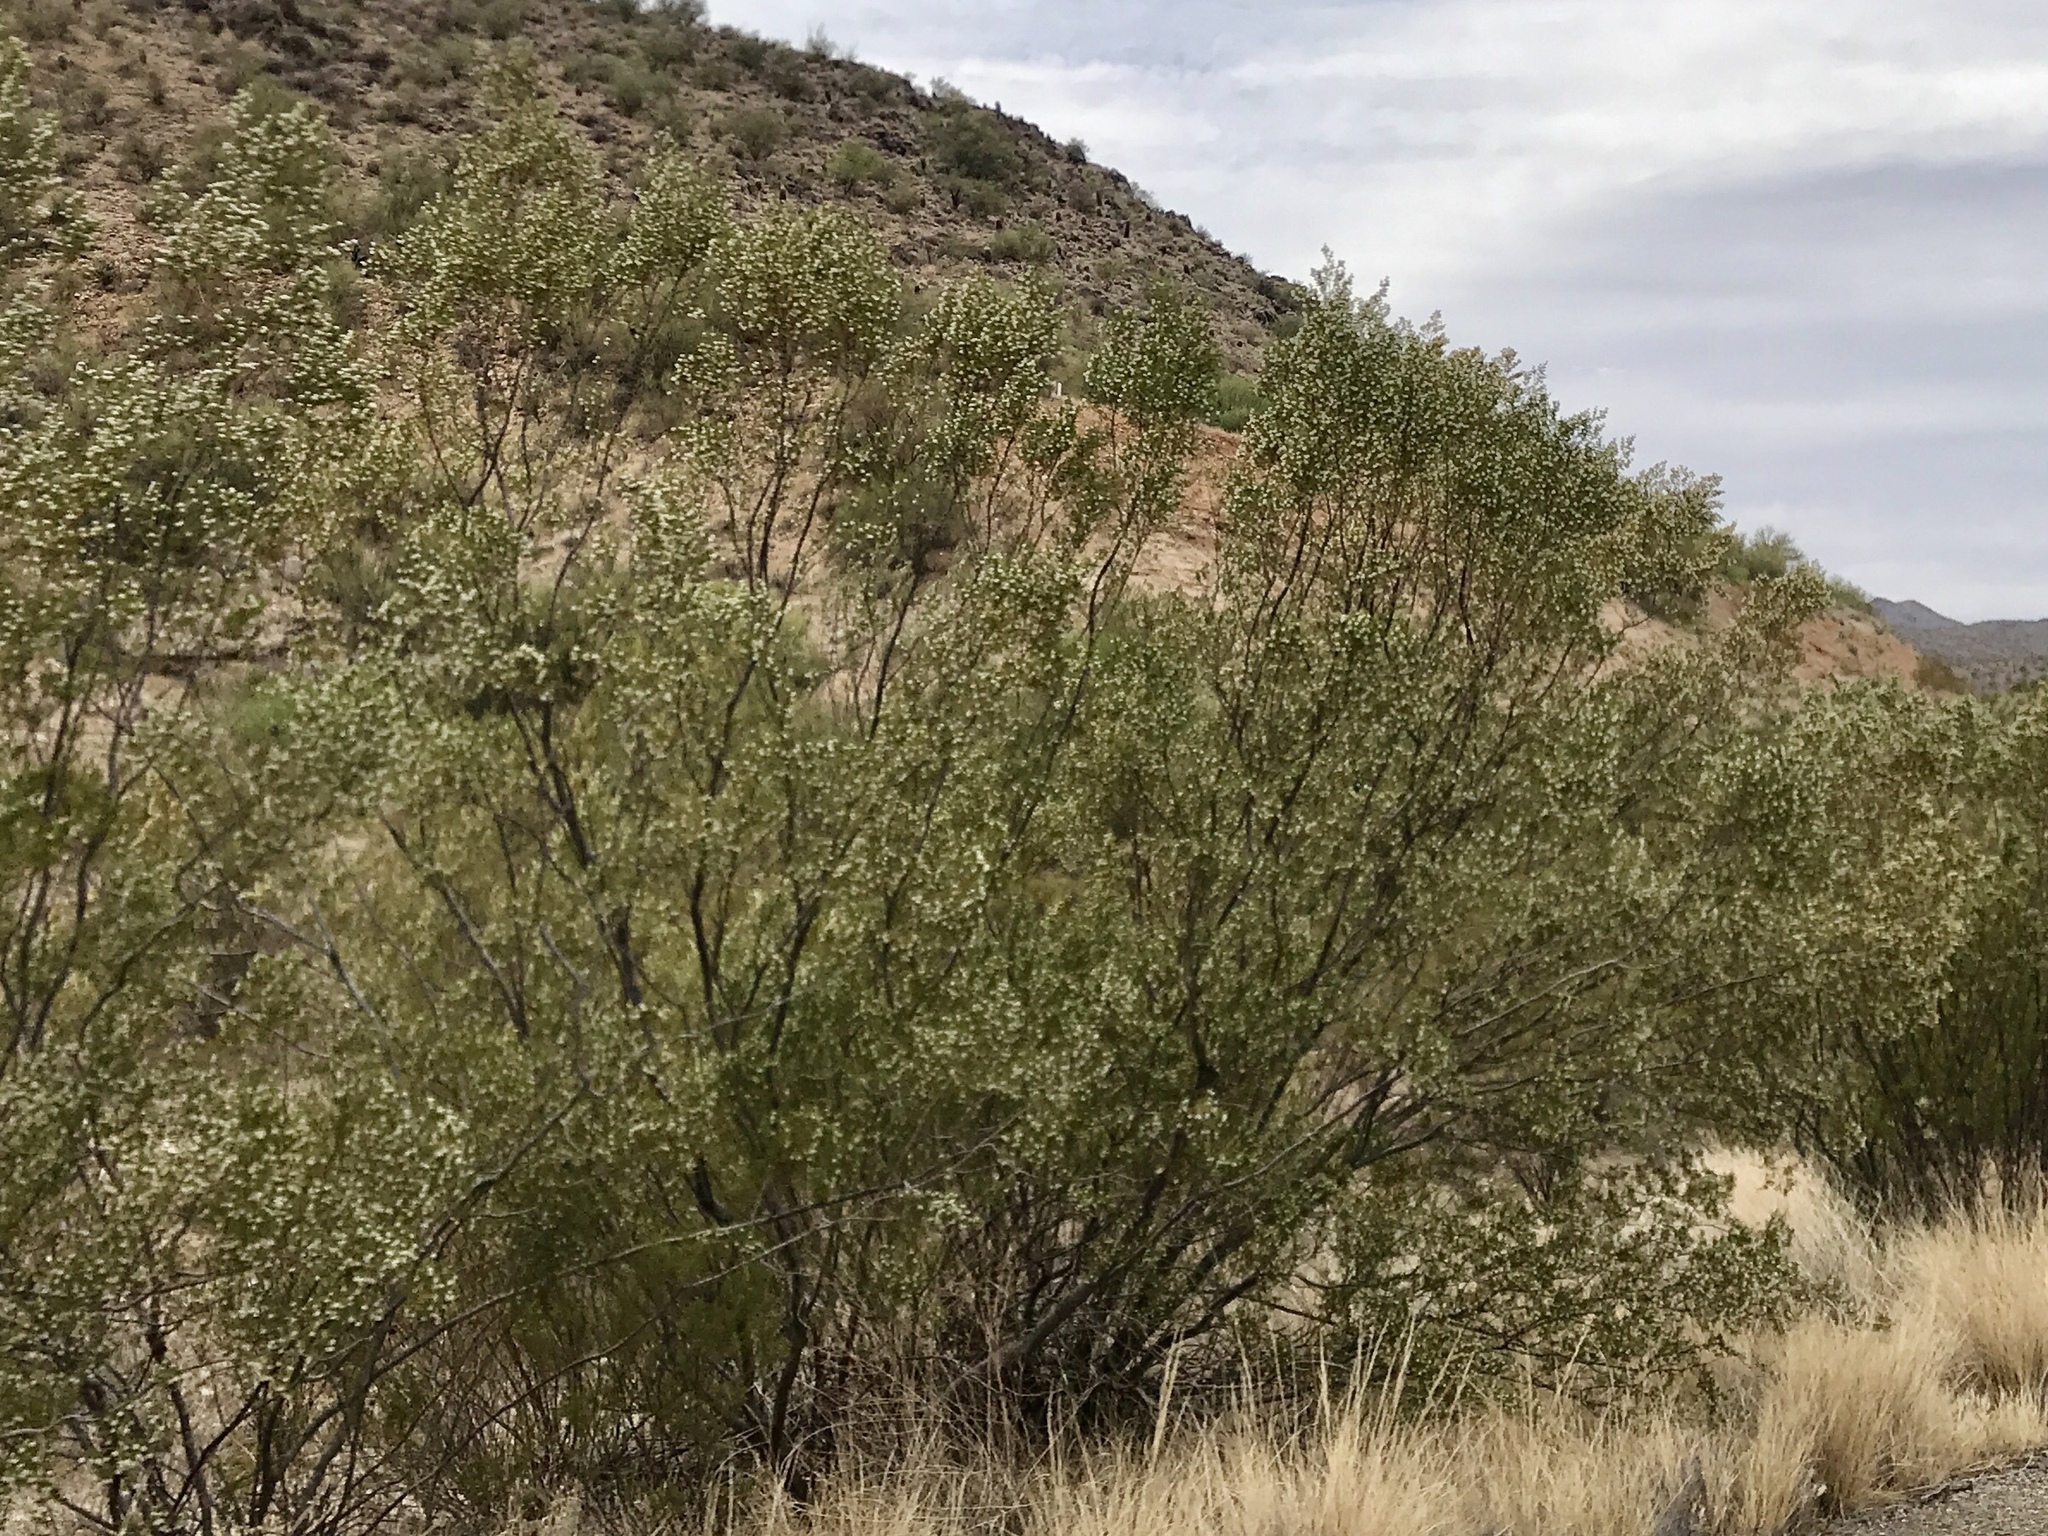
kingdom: Plantae
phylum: Tracheophyta
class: Magnoliopsida
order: Zygophyllales
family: Zygophyllaceae
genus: Larrea
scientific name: Larrea tridentata
